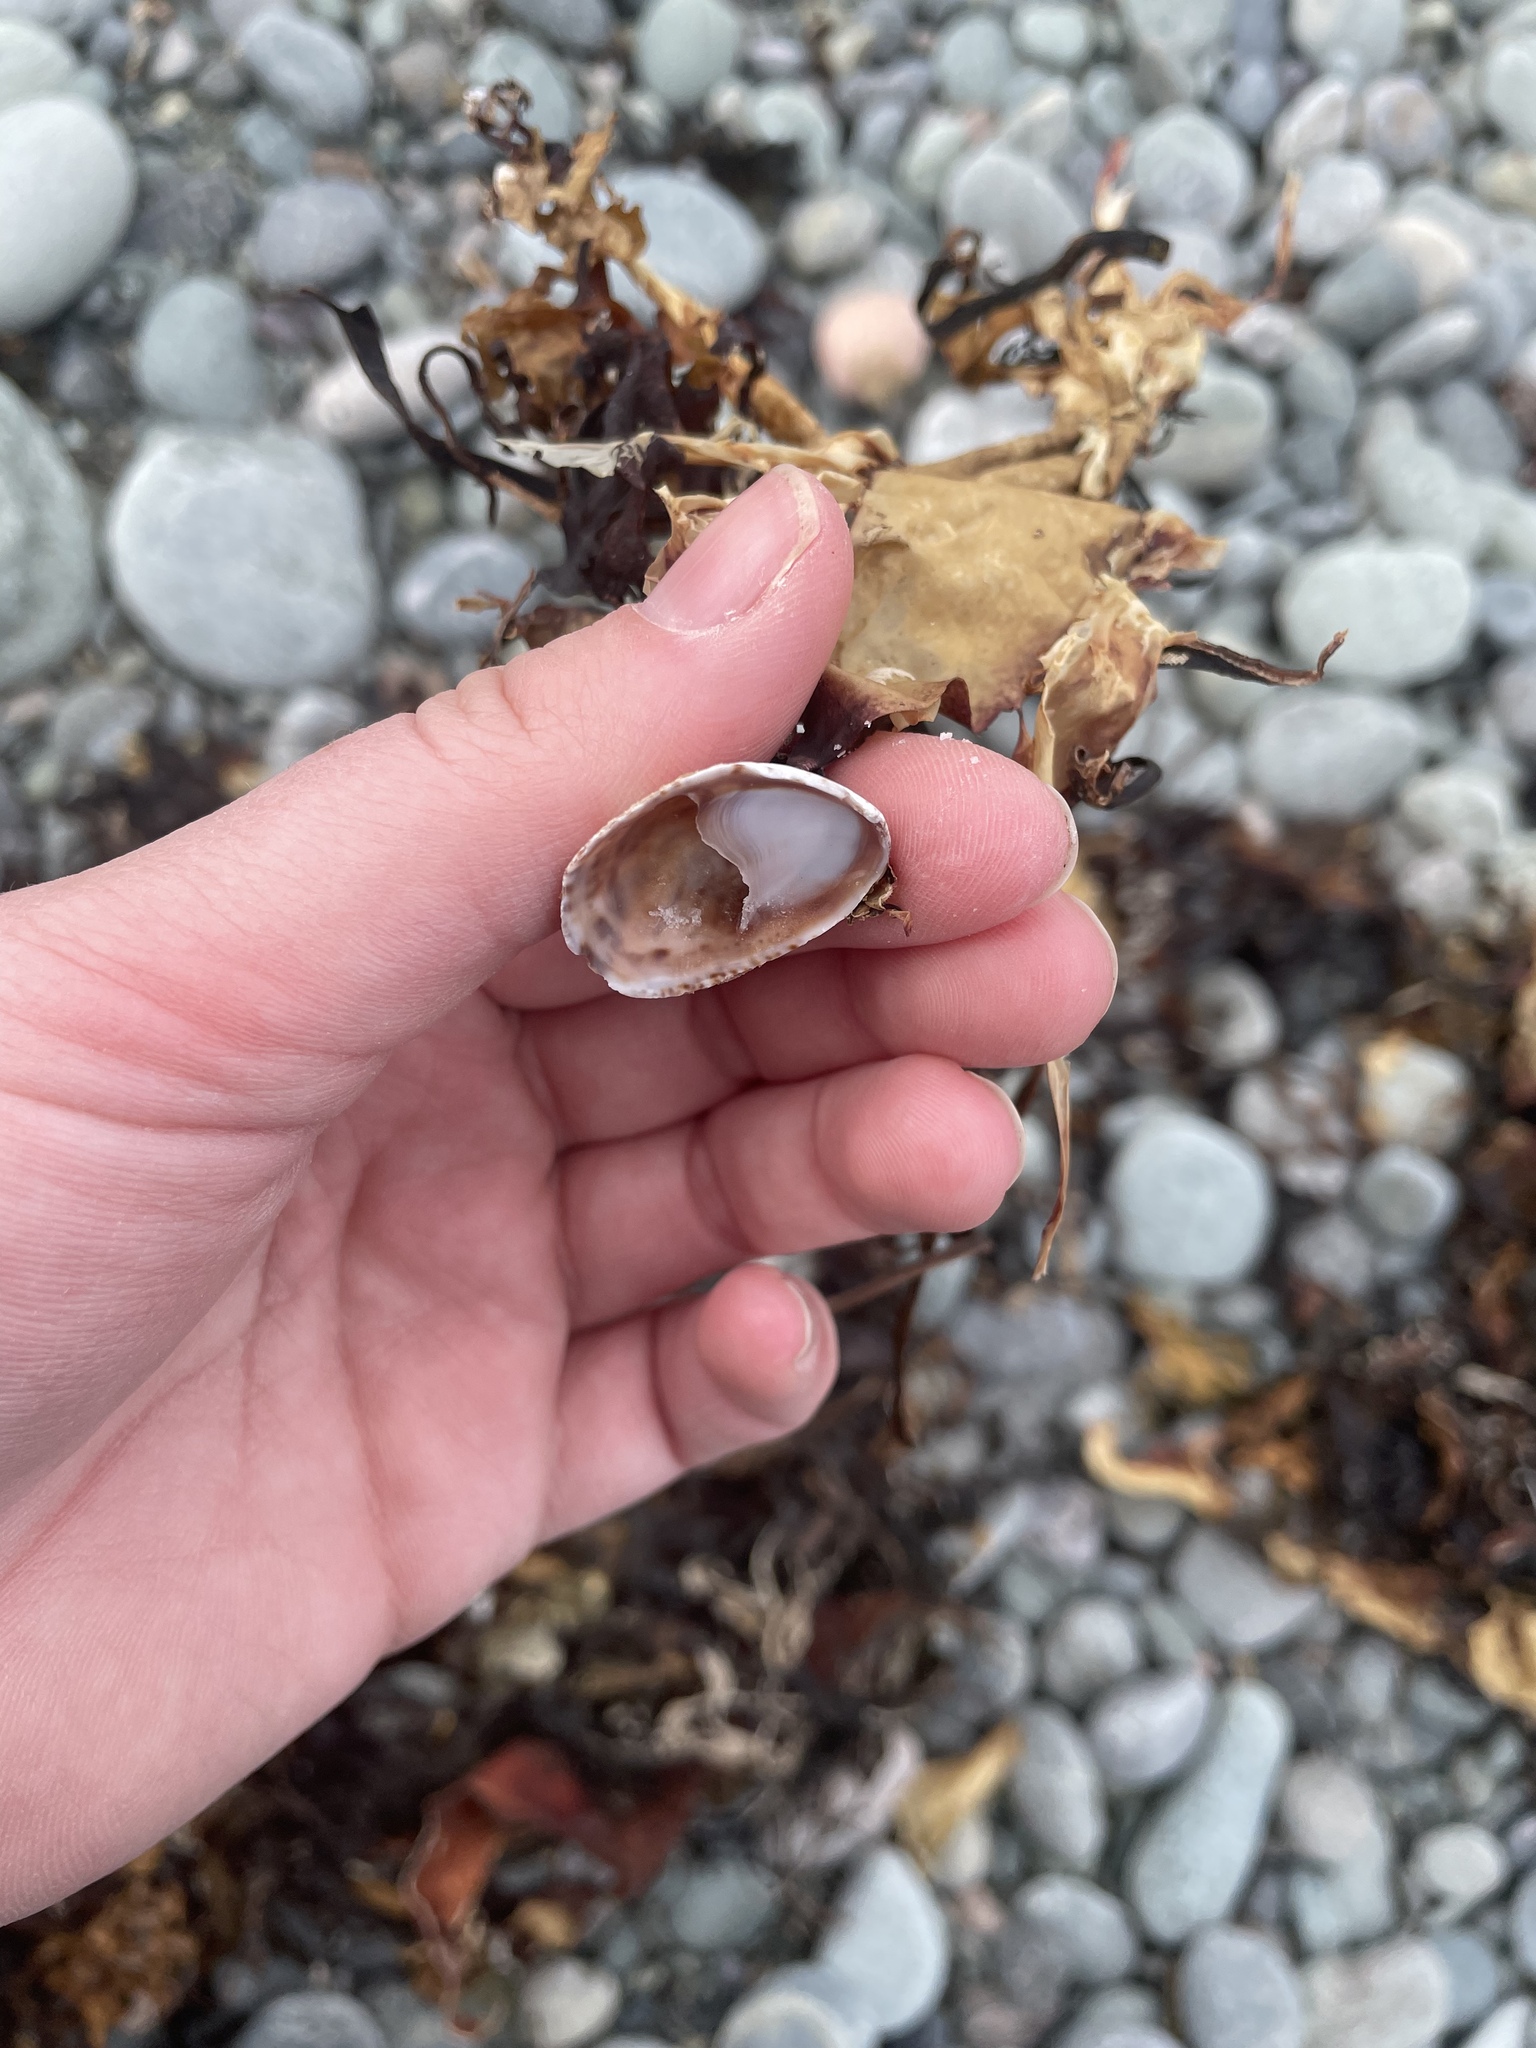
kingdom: Animalia
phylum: Mollusca
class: Gastropoda
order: Littorinimorpha
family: Calyptraeidae
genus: Crepidula
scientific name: Crepidula fornicata
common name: Slipper limpet
